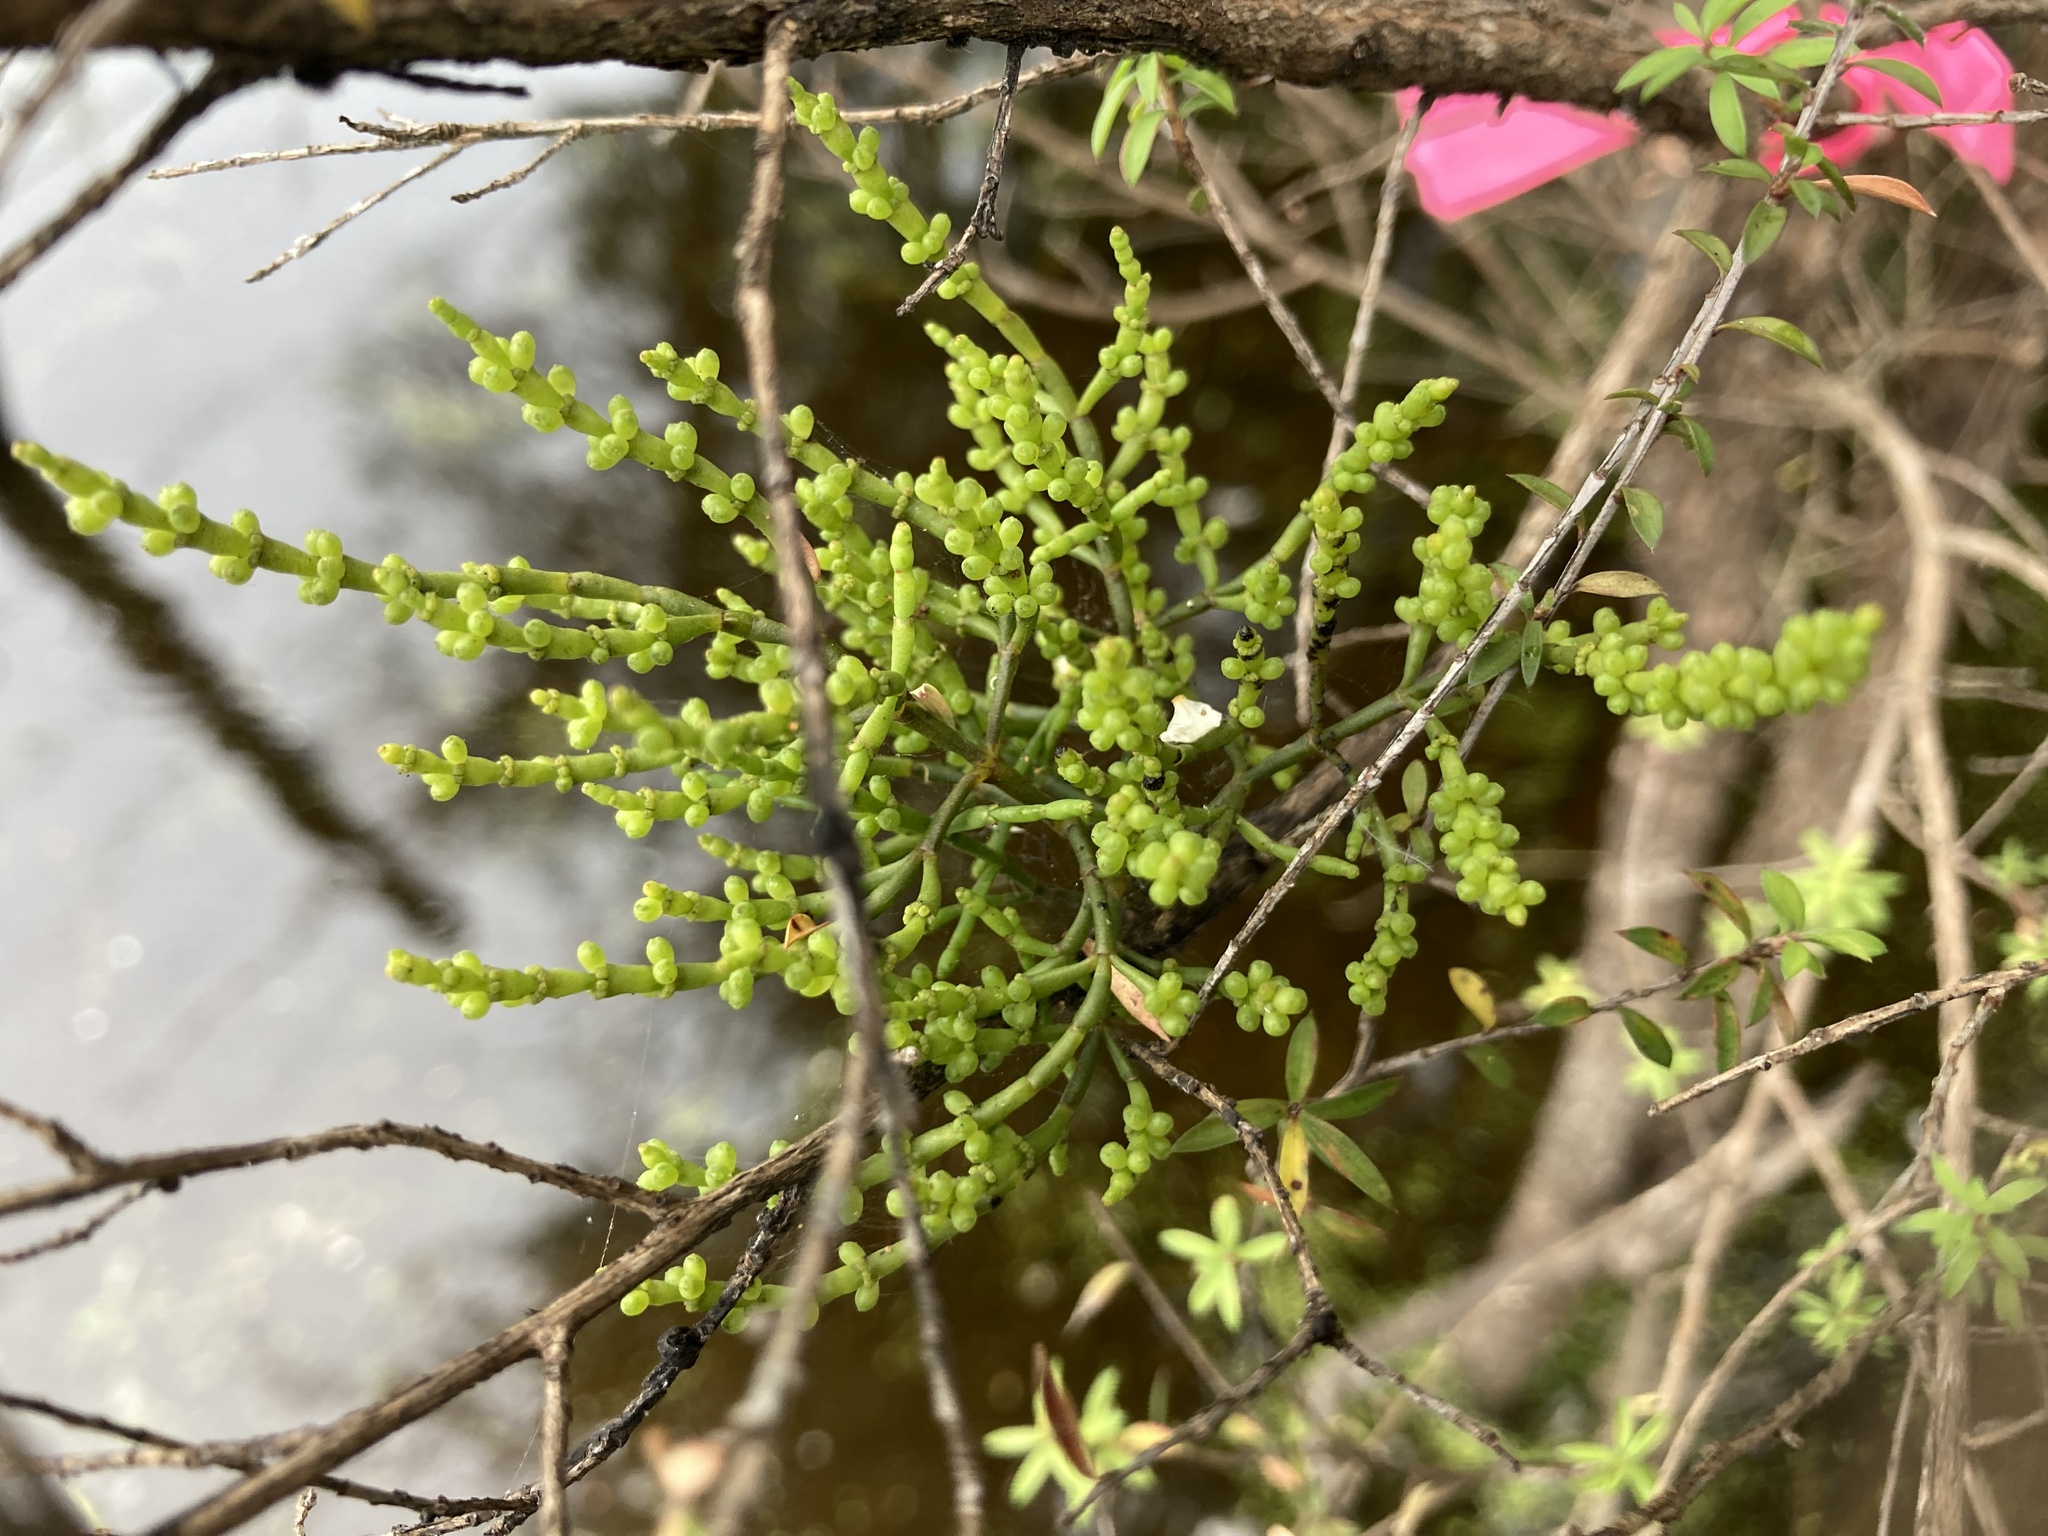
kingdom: Plantae
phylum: Tracheophyta
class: Magnoliopsida
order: Santalales
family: Viscaceae
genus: Korthalsella
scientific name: Korthalsella salicornioides
